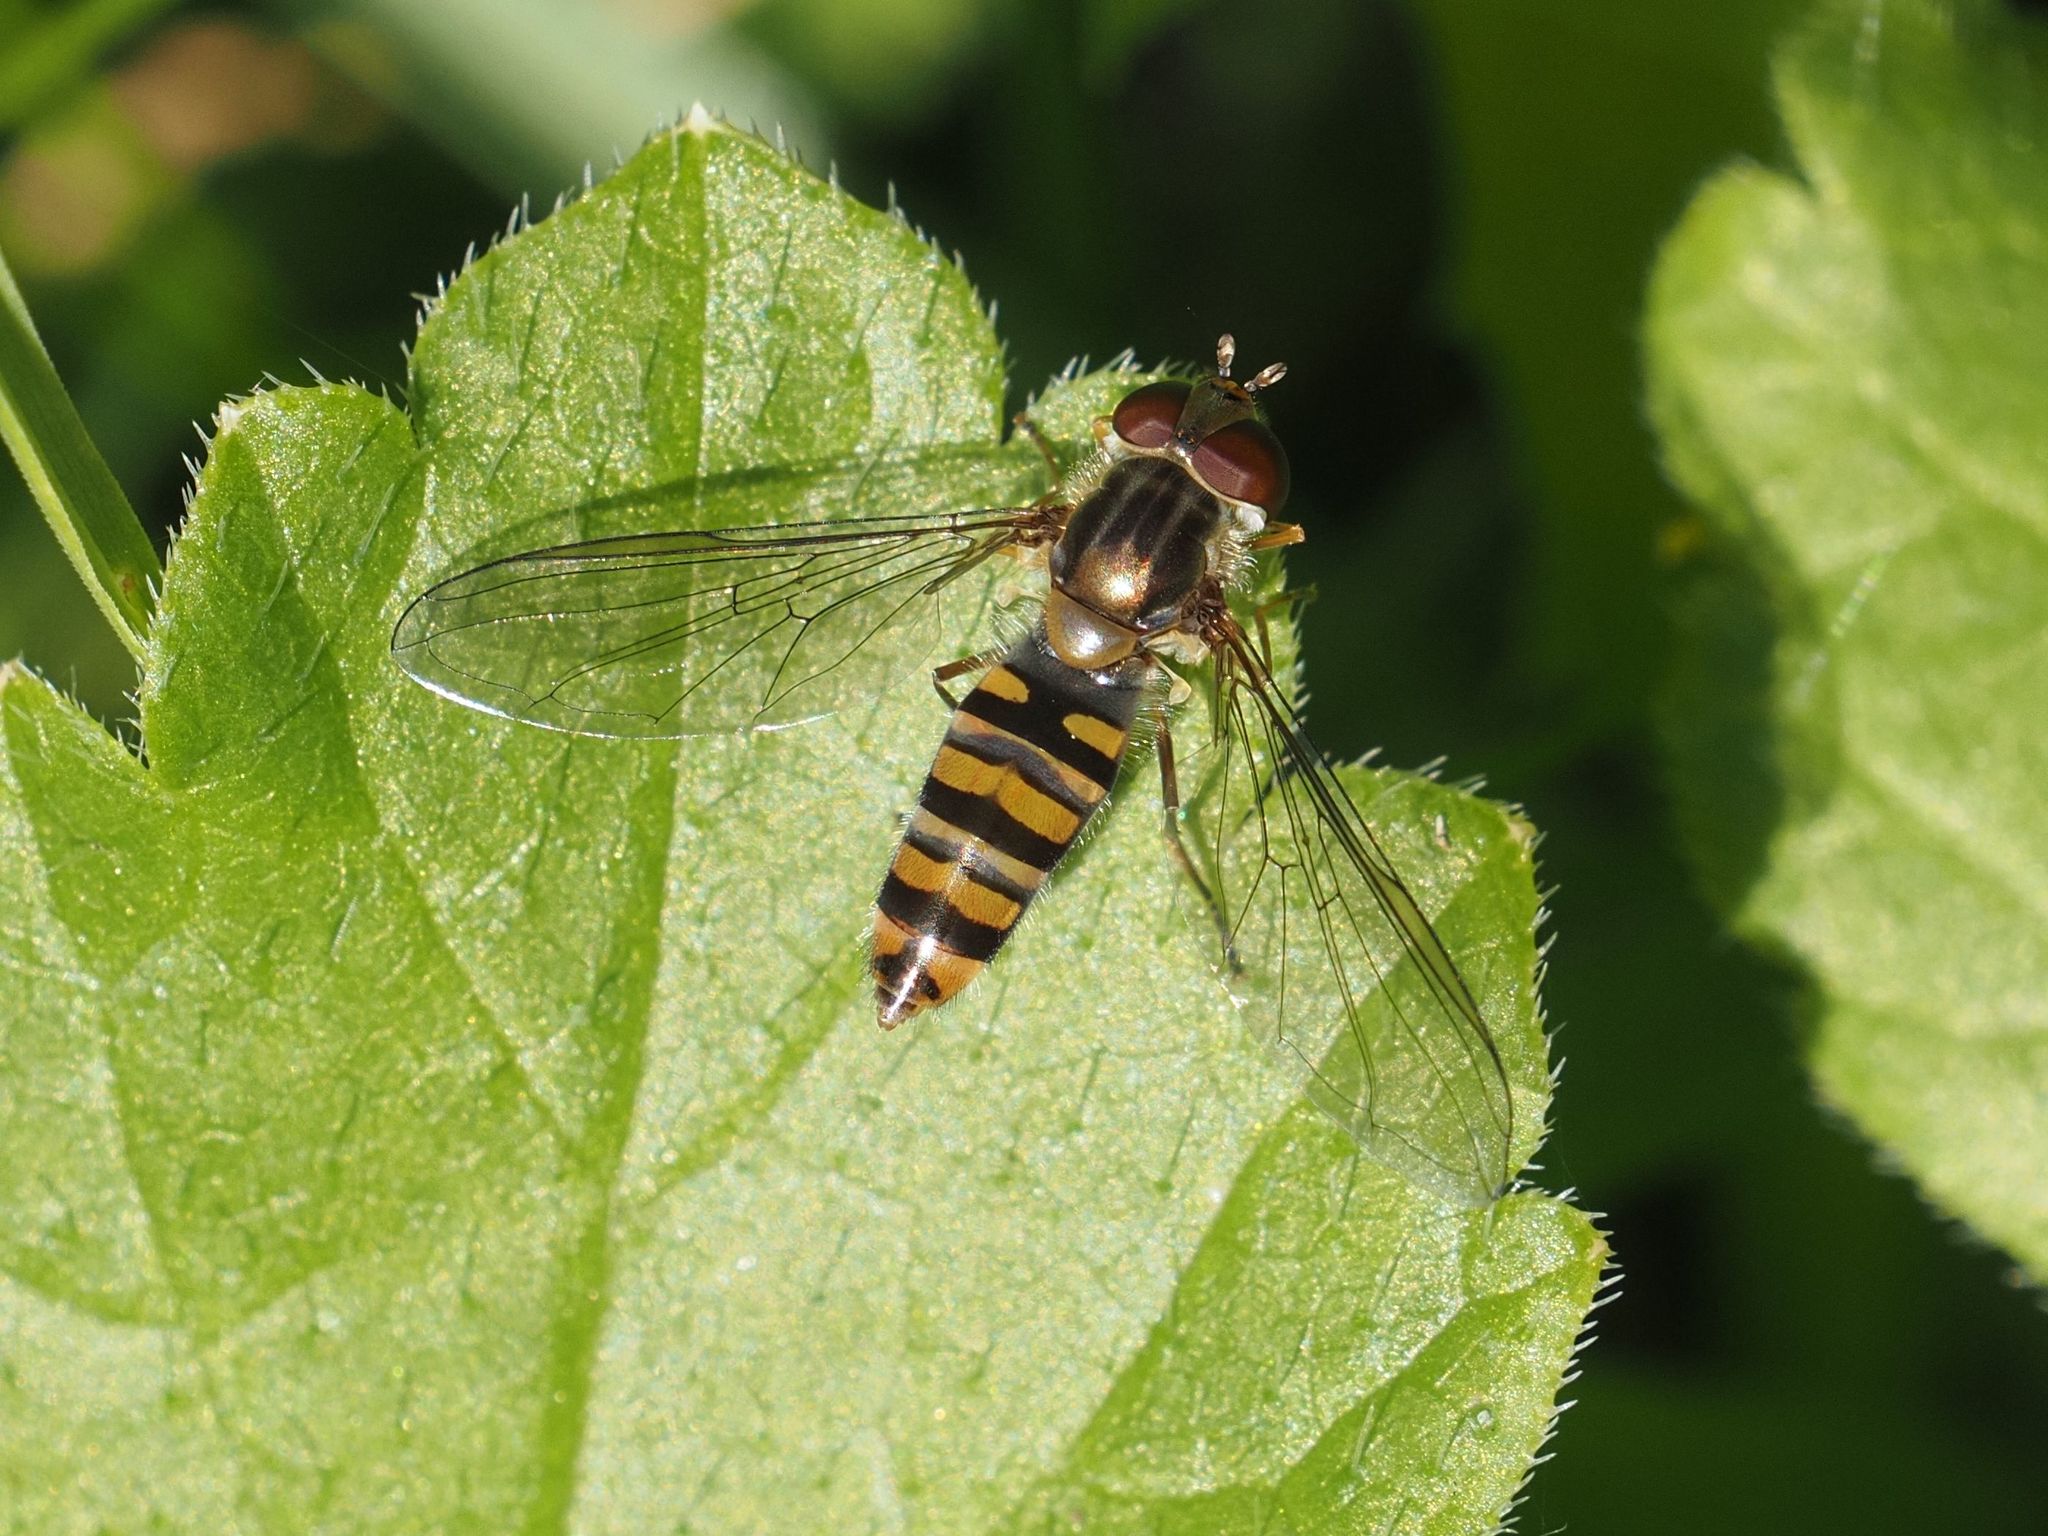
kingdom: Animalia
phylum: Arthropoda
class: Insecta
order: Diptera
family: Syrphidae
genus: Episyrphus
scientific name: Episyrphus balteatus
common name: Marmalade hoverfly
